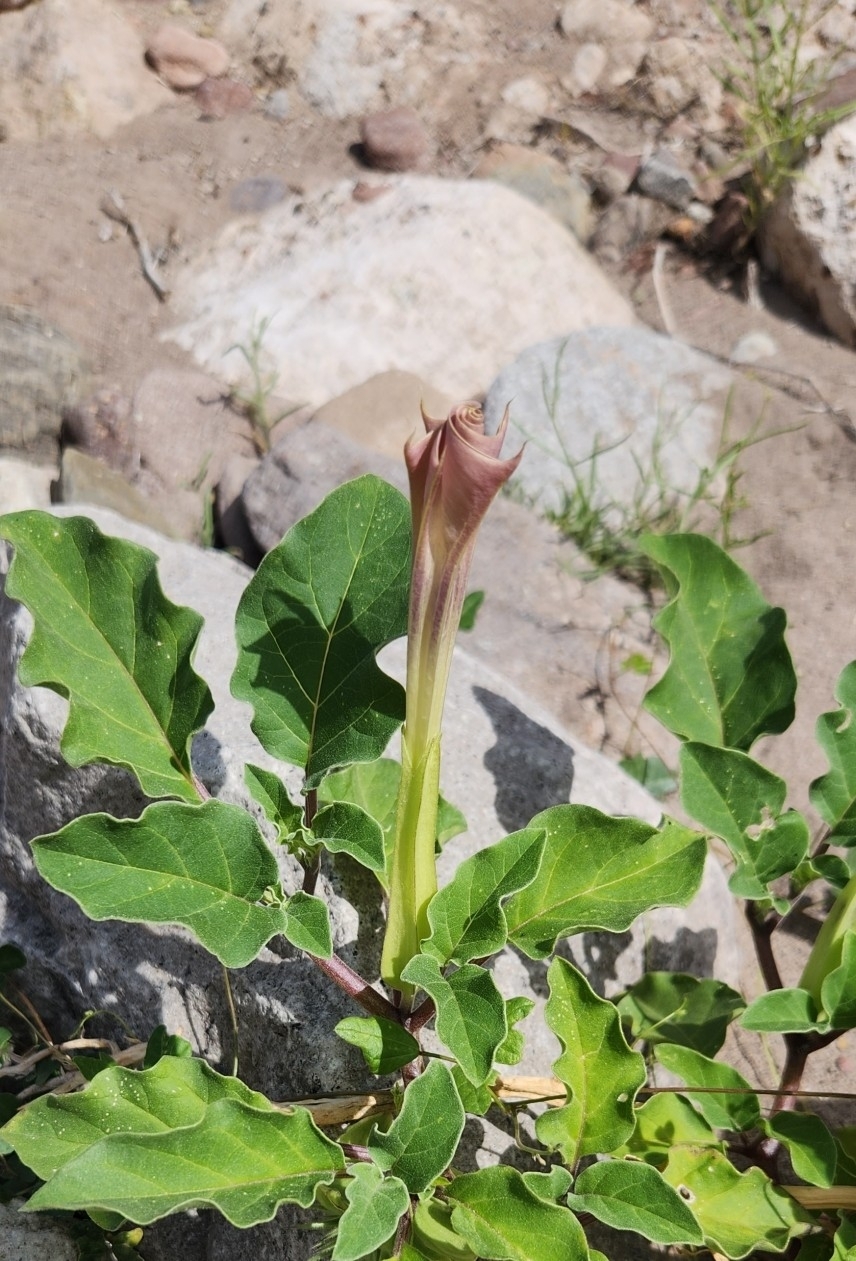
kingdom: Plantae
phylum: Tracheophyta
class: Magnoliopsida
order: Solanales
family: Solanaceae
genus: Datura
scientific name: Datura discolor
